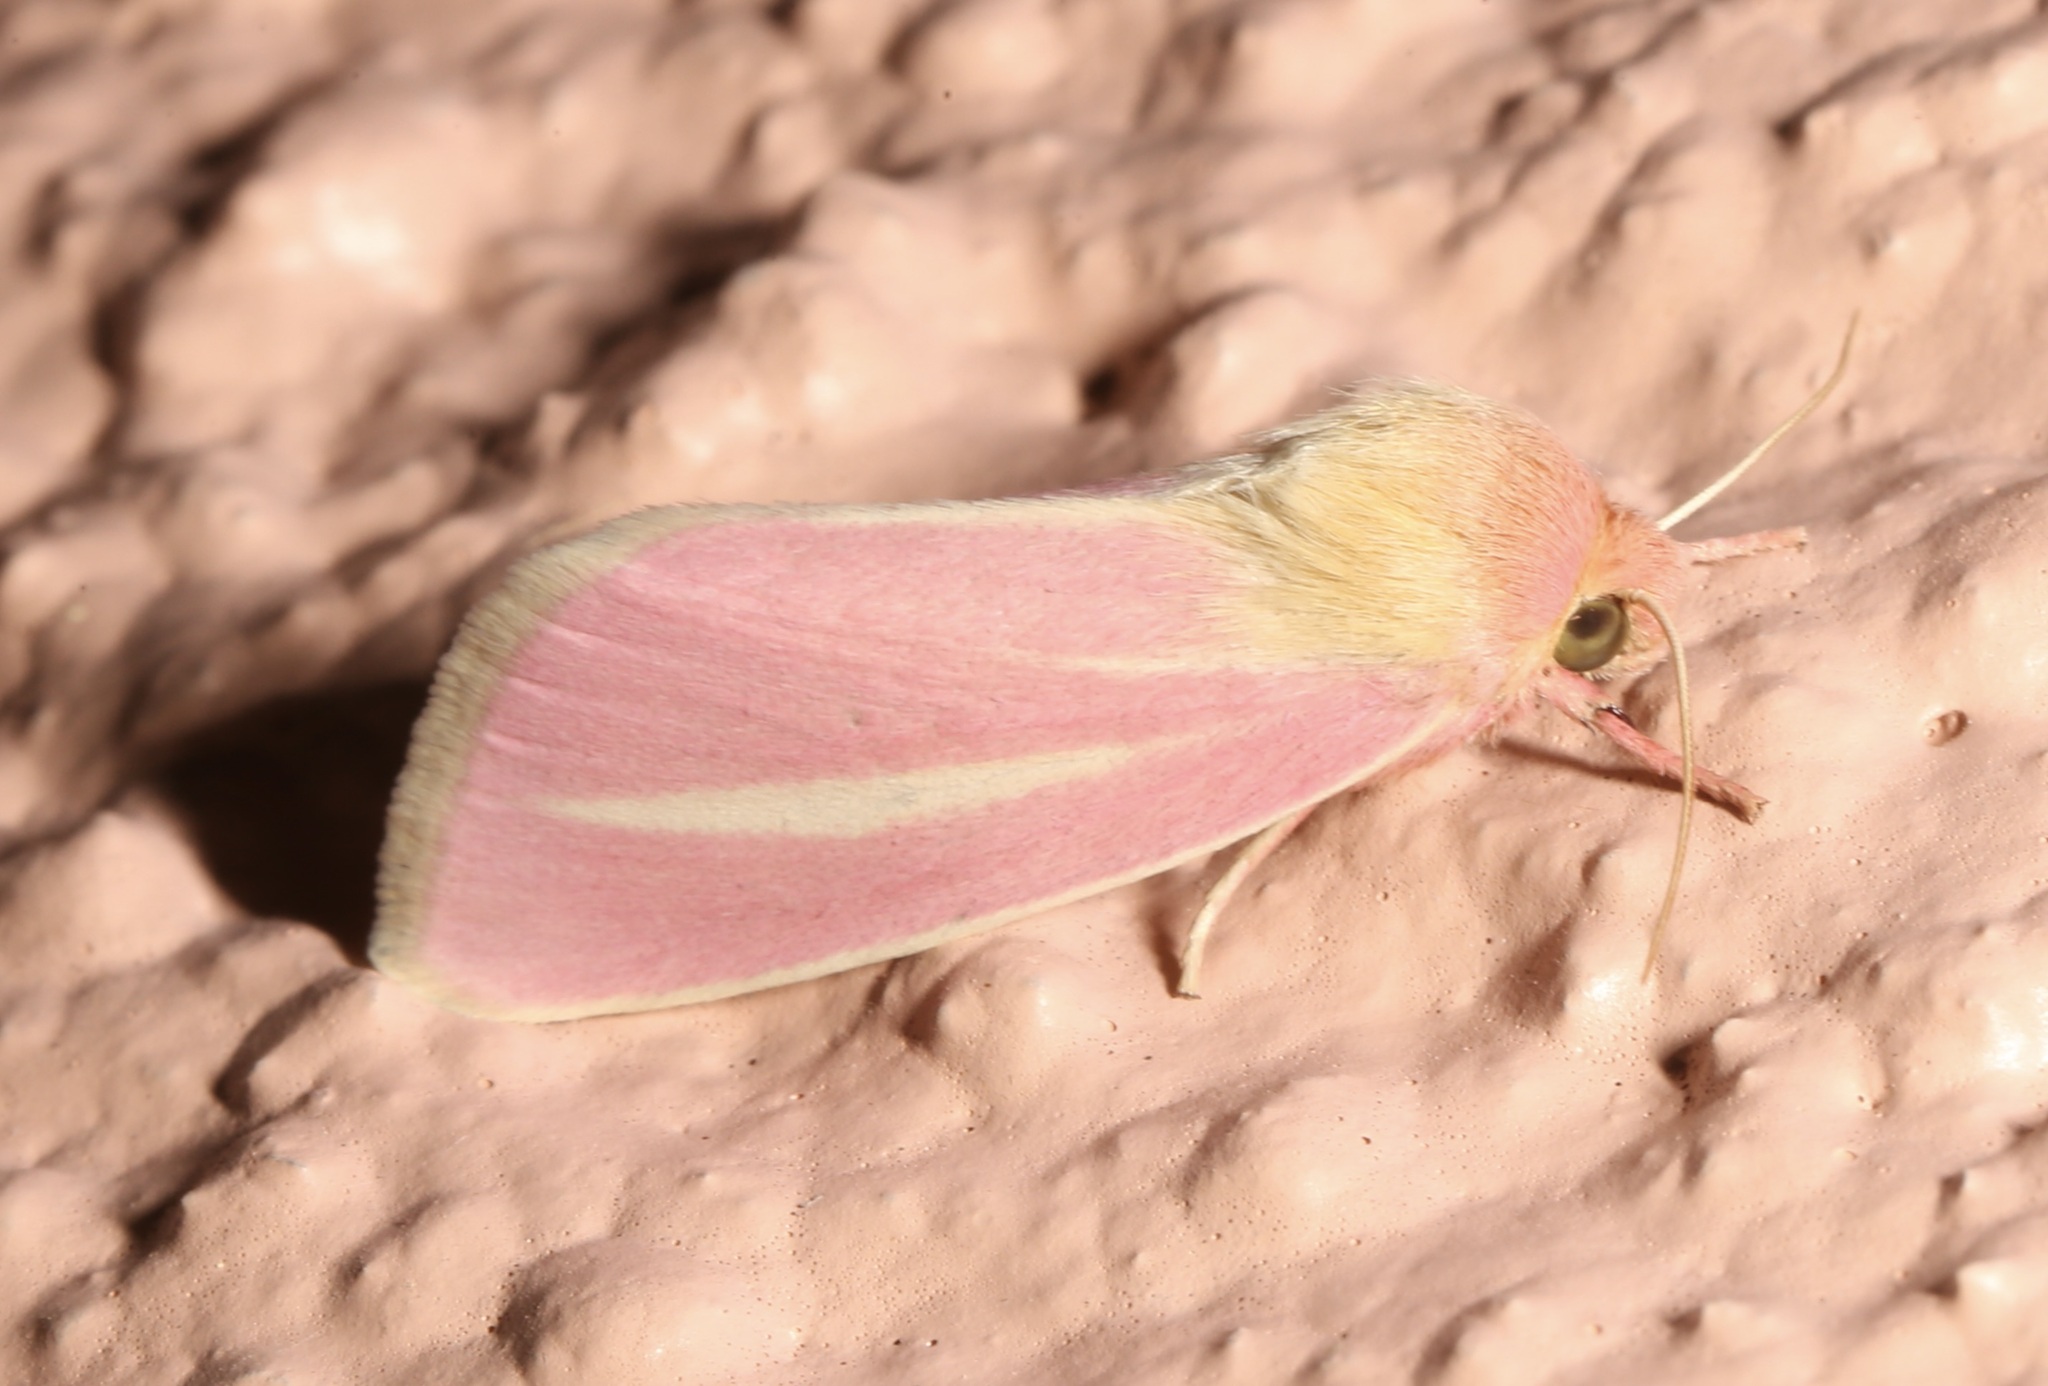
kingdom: Animalia
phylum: Arthropoda
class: Insecta
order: Lepidoptera
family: Noctuidae
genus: Heliocheilus
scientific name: Heliocheilus julia
